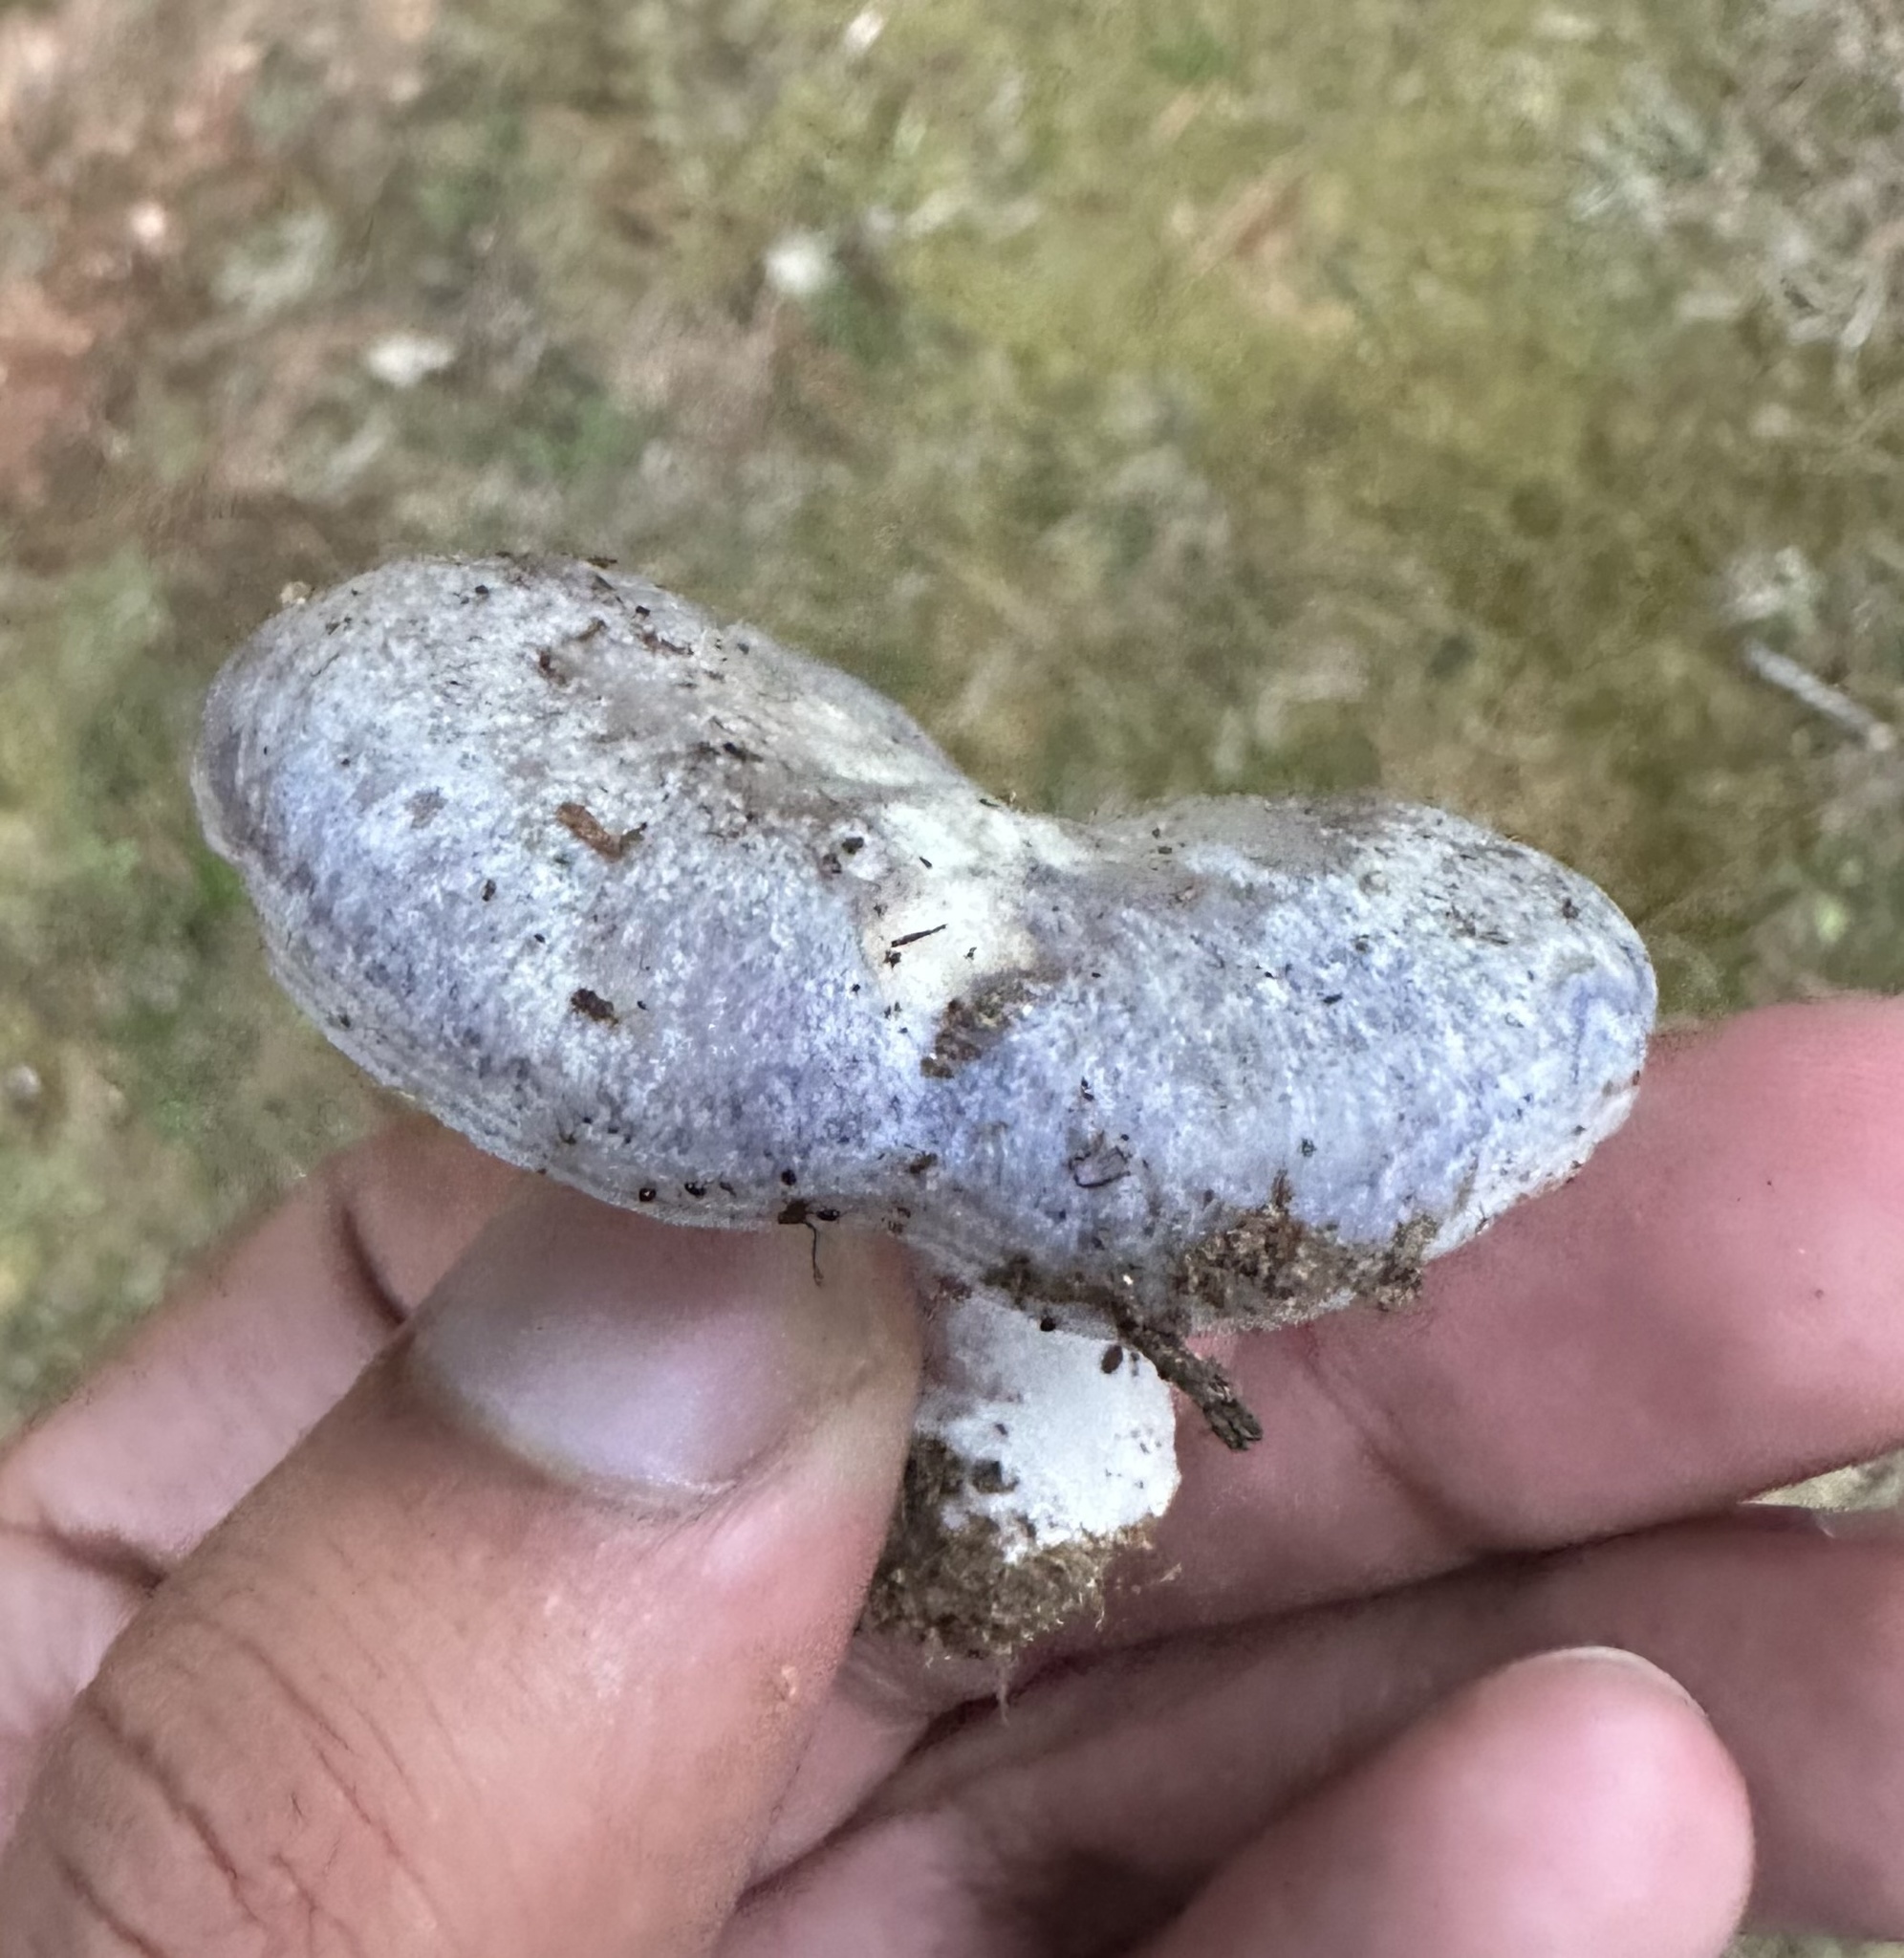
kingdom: Fungi
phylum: Basidiomycota
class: Agaricomycetes
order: Russulales
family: Russulaceae
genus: Lactarius
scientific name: Lactarius paradoxus
